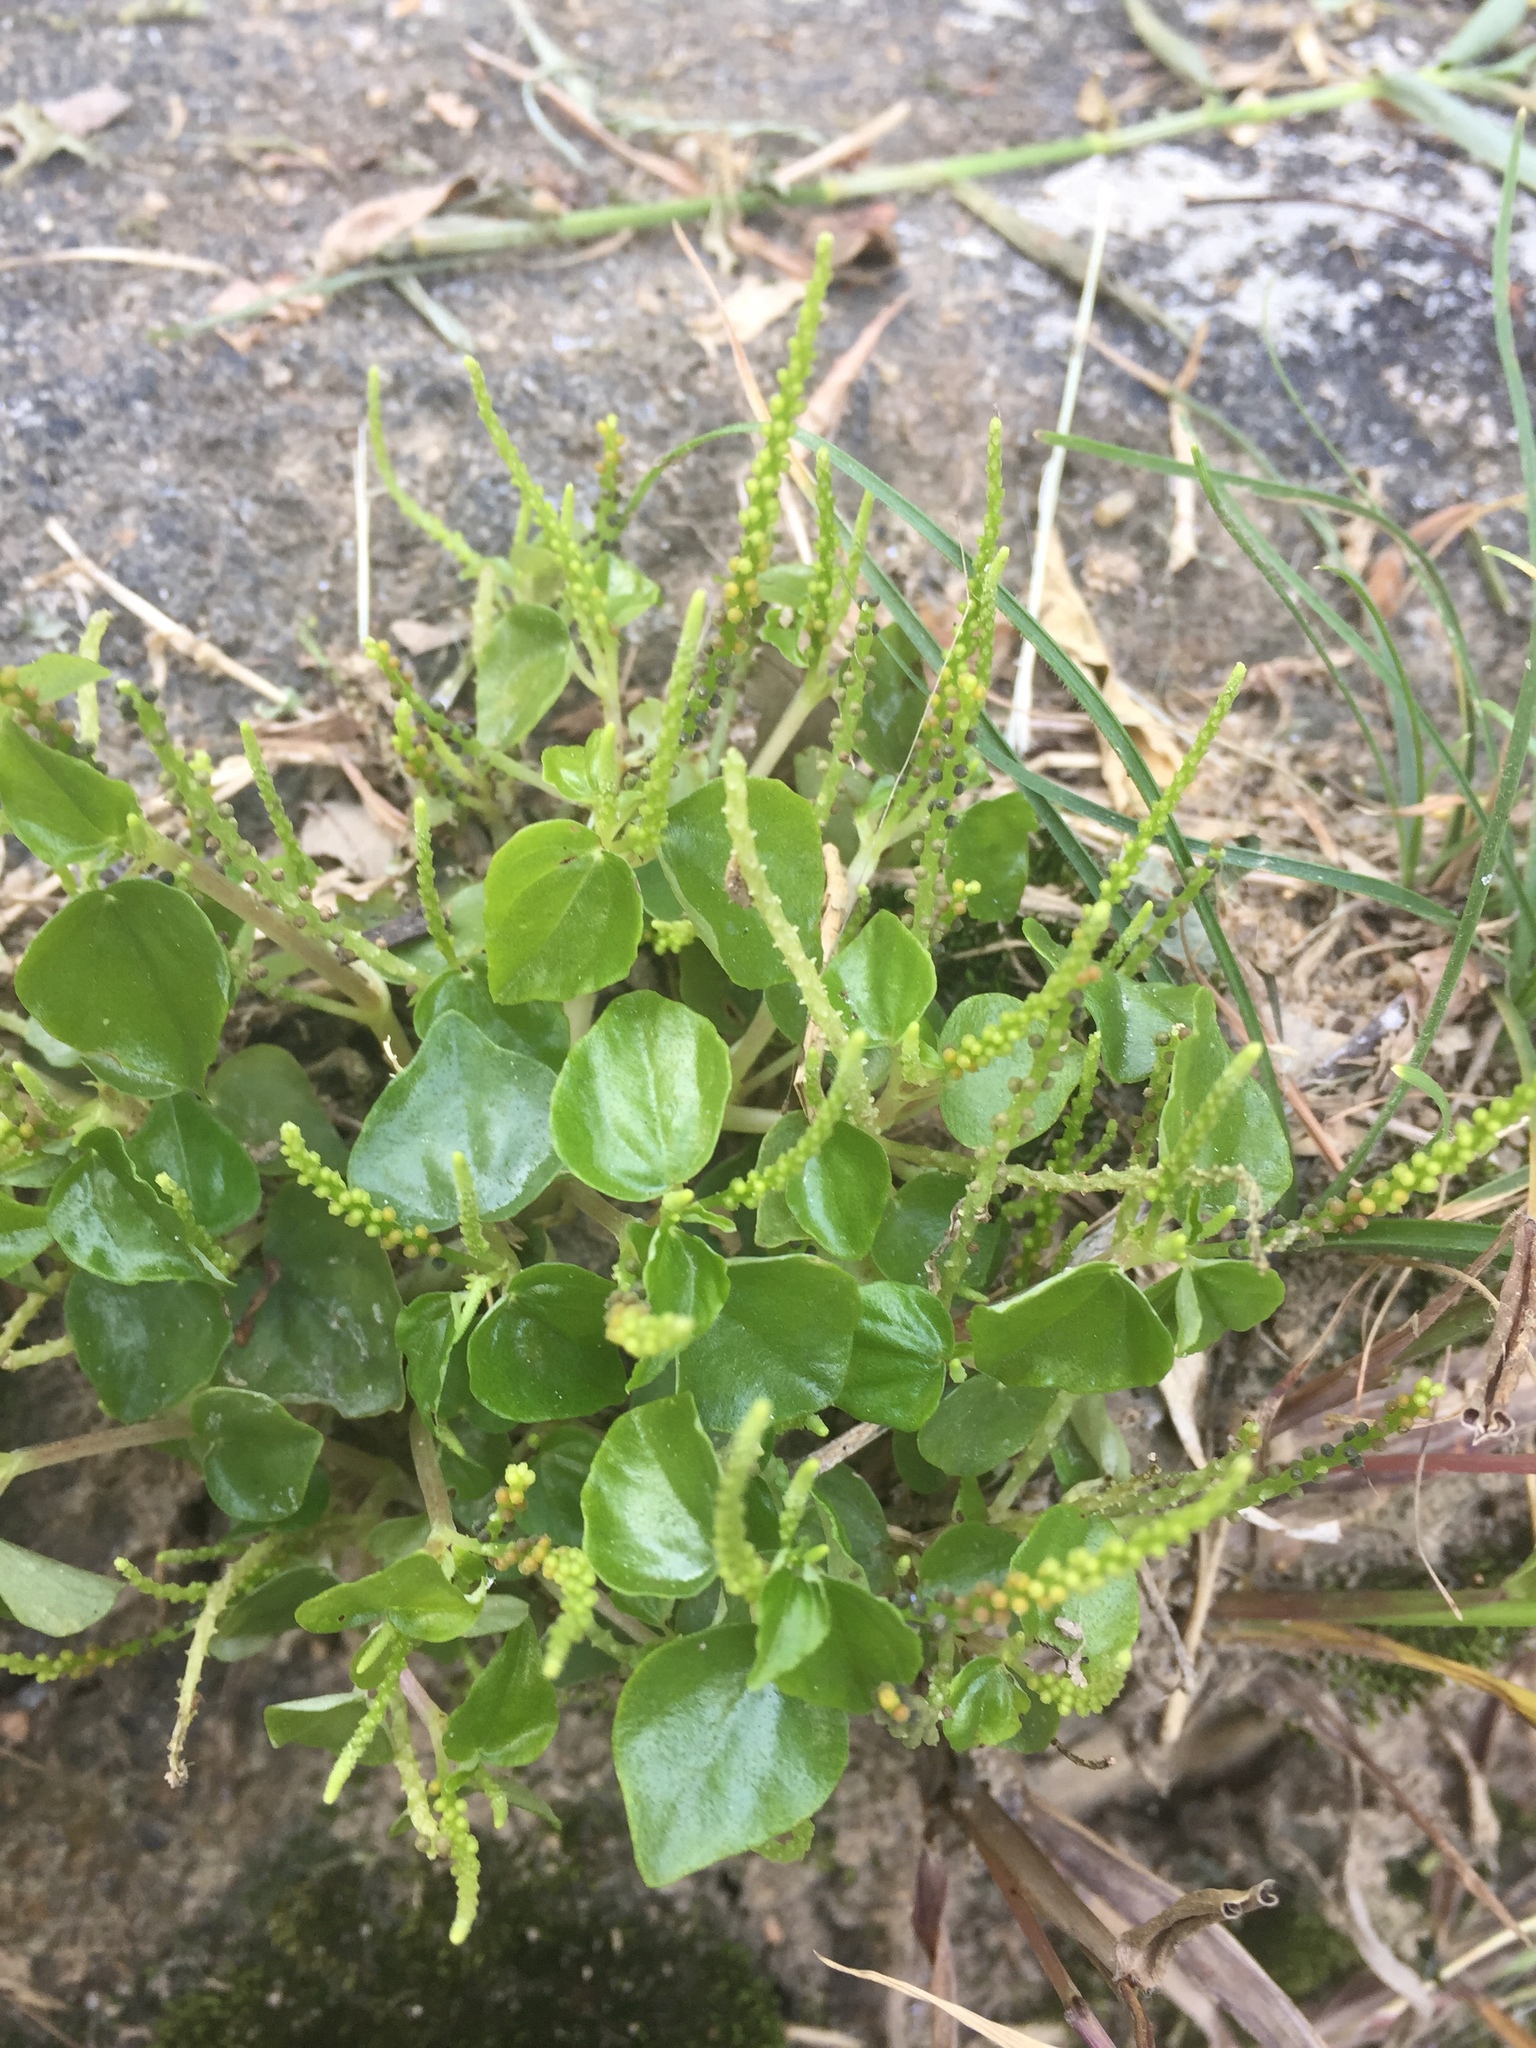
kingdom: Plantae
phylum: Tracheophyta
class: Magnoliopsida
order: Piperales
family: Piperaceae
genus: Peperomia
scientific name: Peperomia pellucida
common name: Man to man
